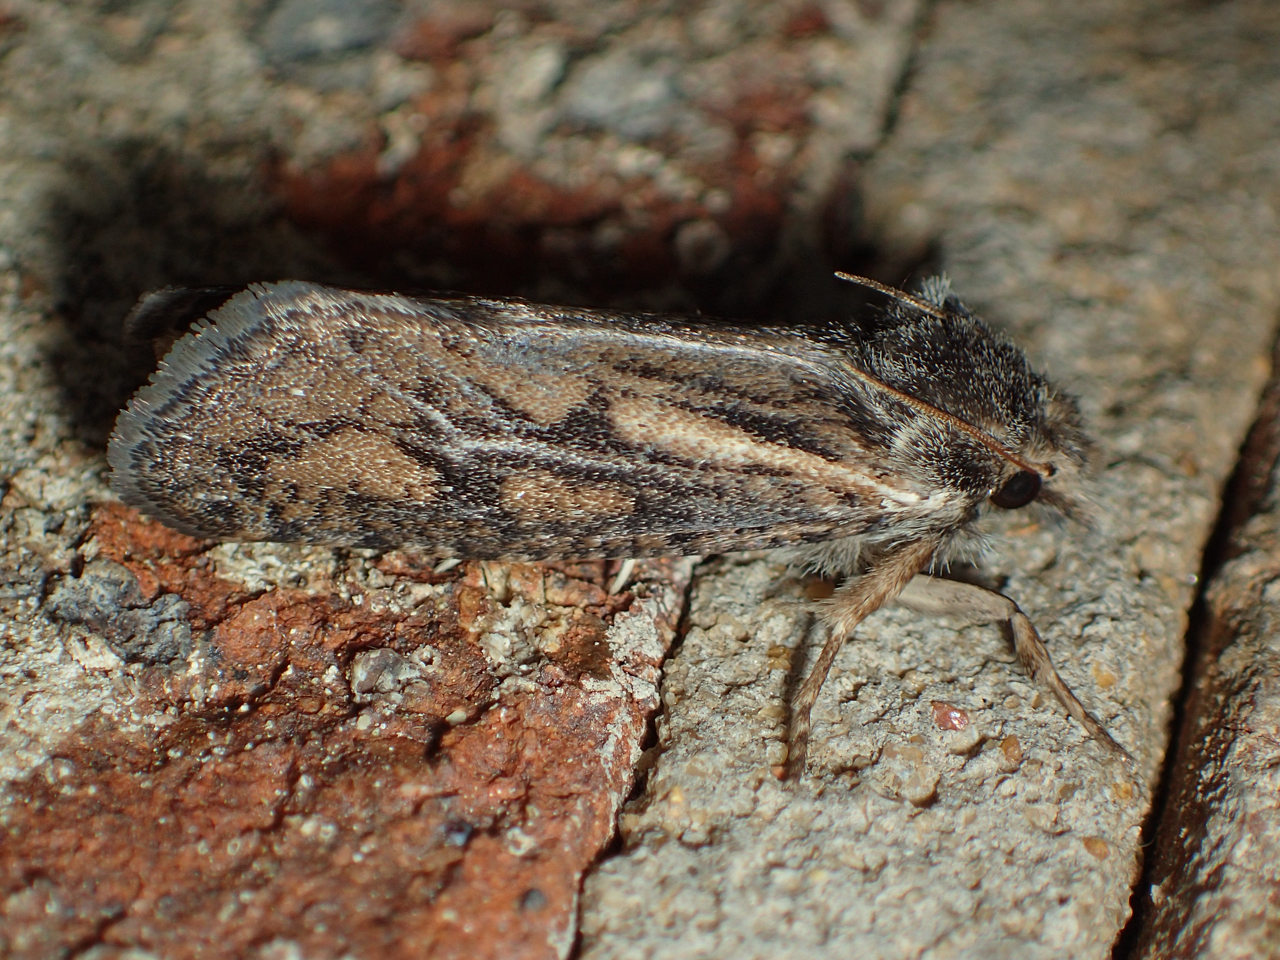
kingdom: Animalia
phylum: Arthropoda
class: Insecta
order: Lepidoptera
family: Tineidae
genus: Acrolophus
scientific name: Acrolophus popeanella
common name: Clemens' grass tubeworm moth
